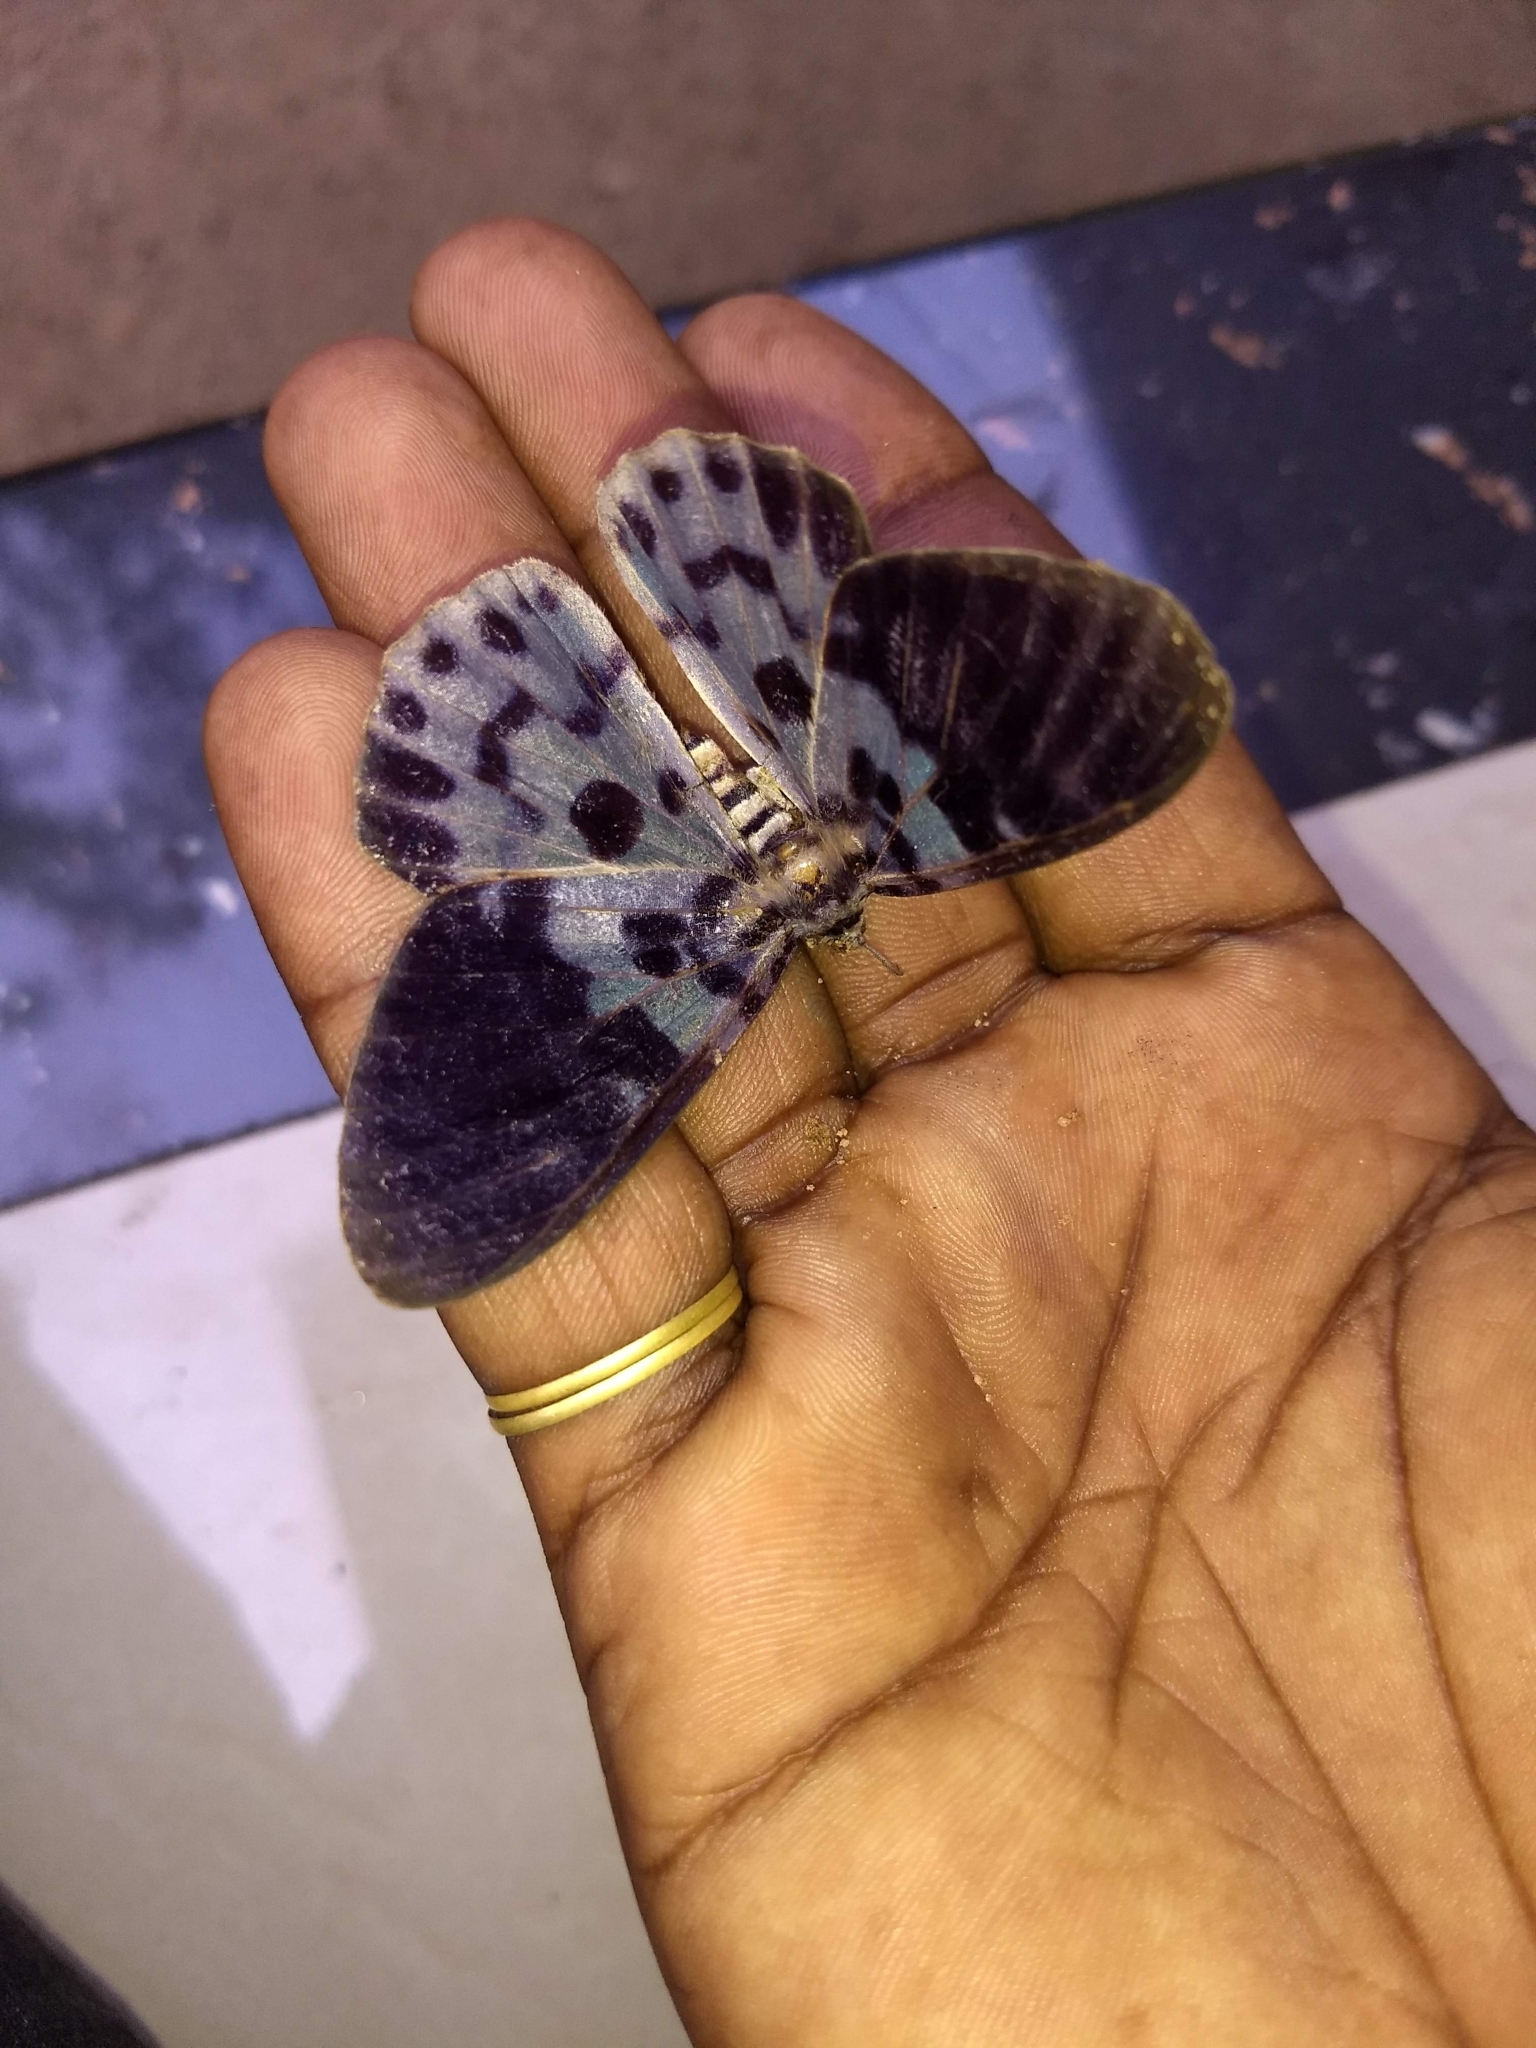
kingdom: Animalia
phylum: Arthropoda
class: Insecta
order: Lepidoptera
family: Geometridae
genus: Dysphania
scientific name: Dysphania percota
